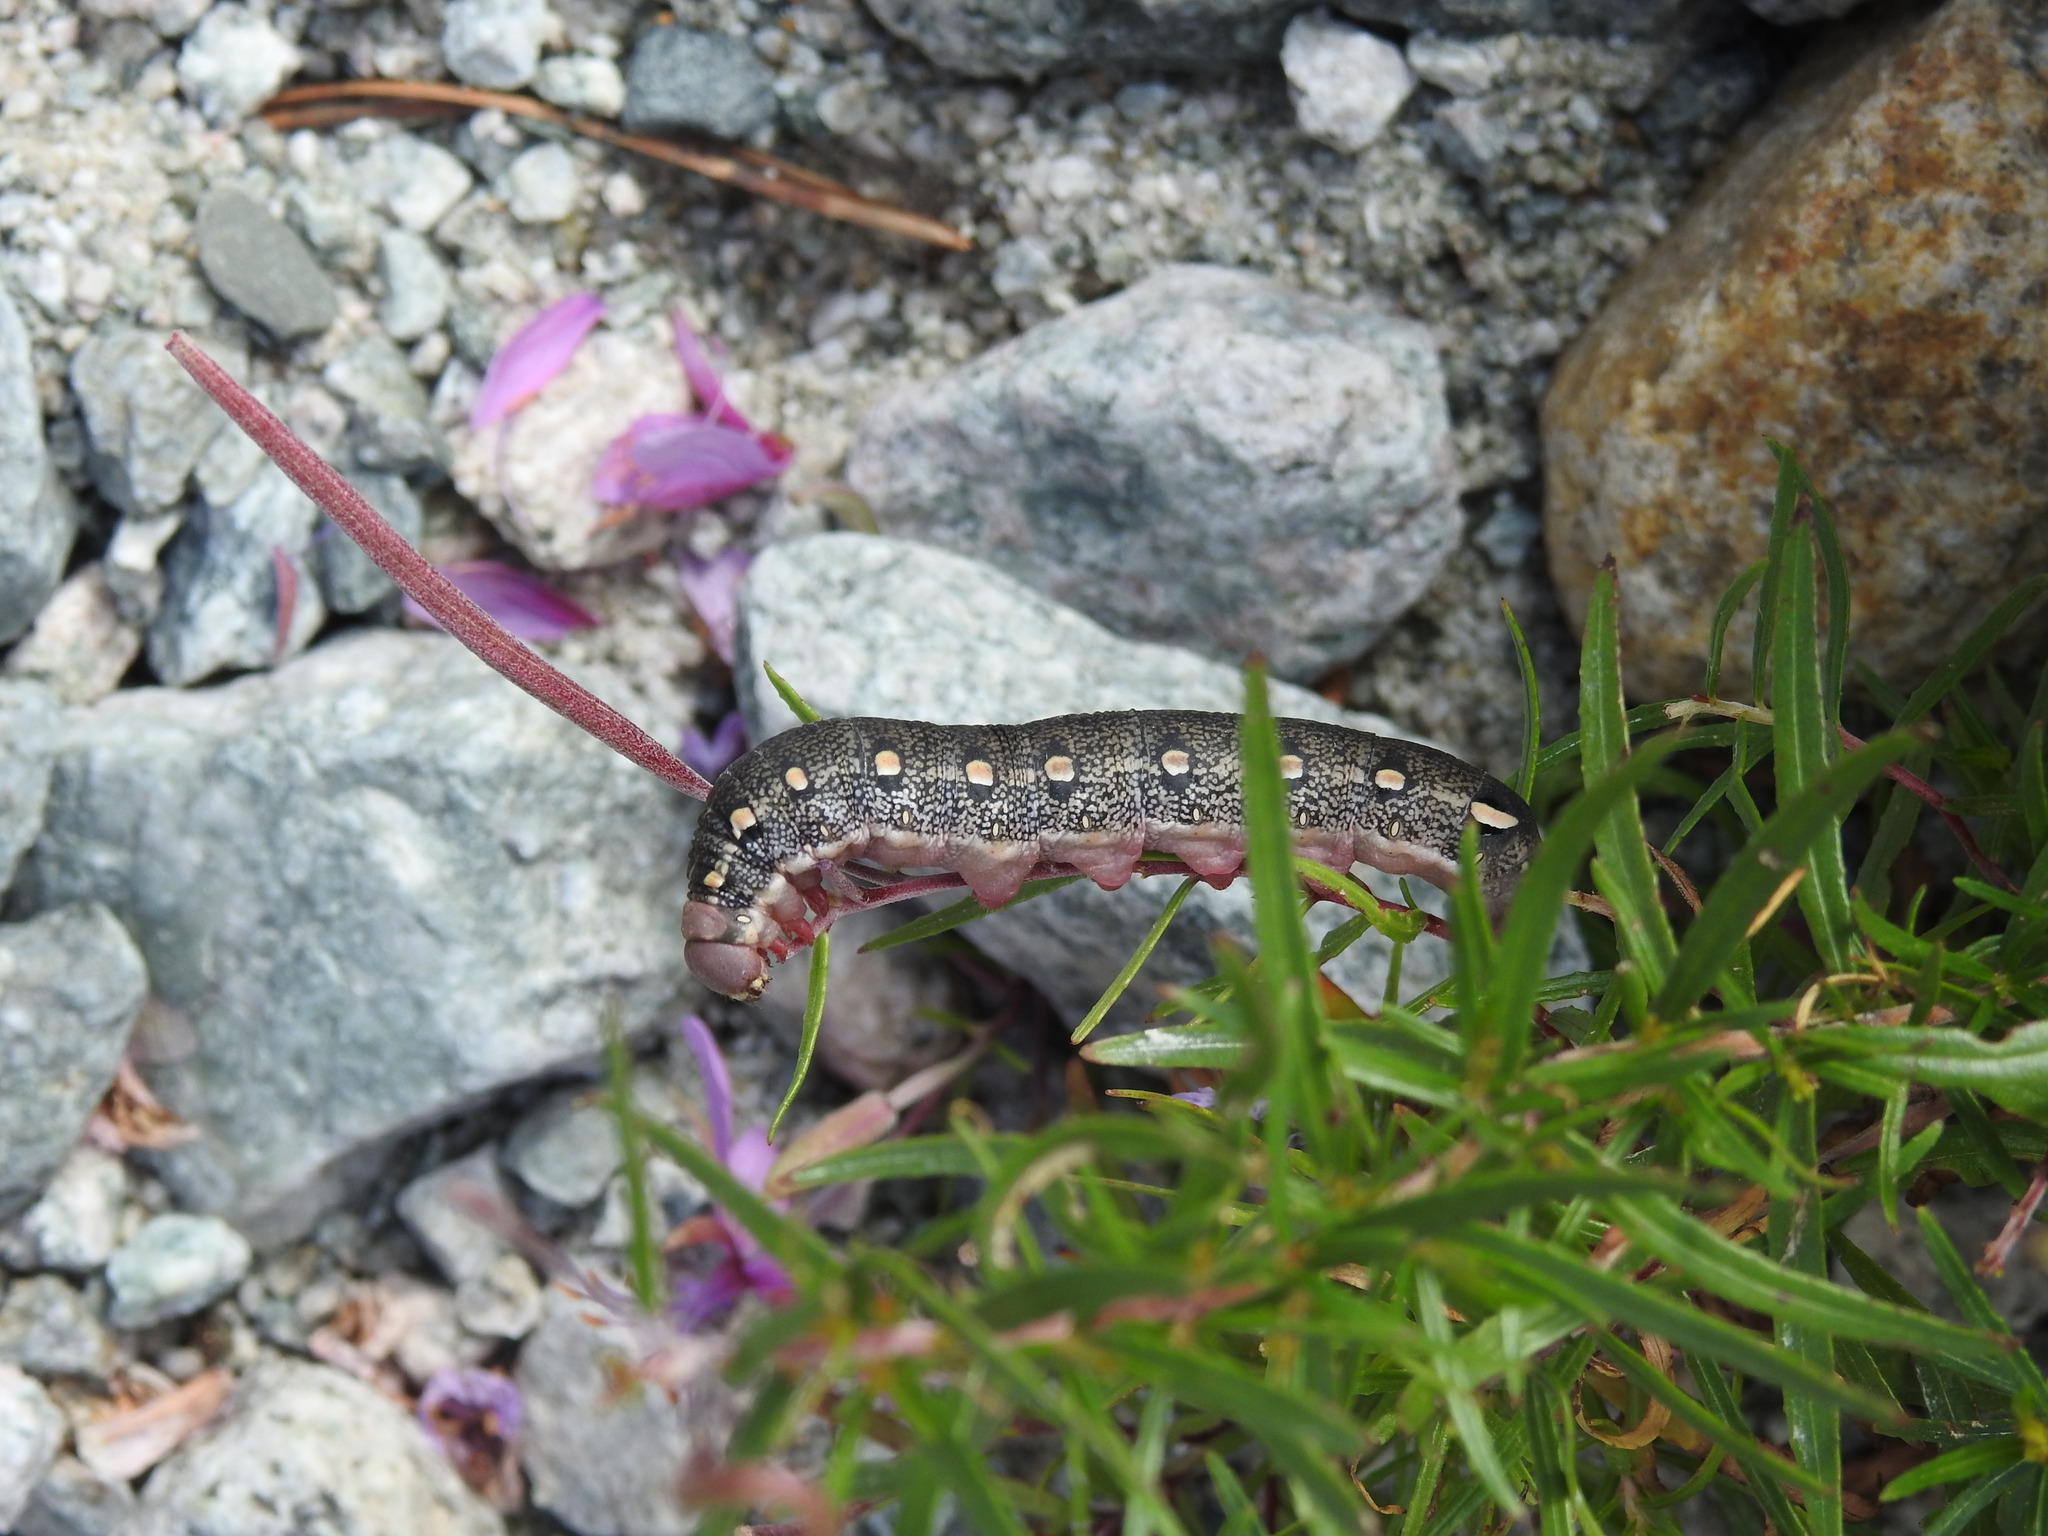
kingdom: Animalia
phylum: Arthropoda
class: Insecta
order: Lepidoptera
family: Sphingidae
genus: Hyles
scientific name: Hyles vespertilio
